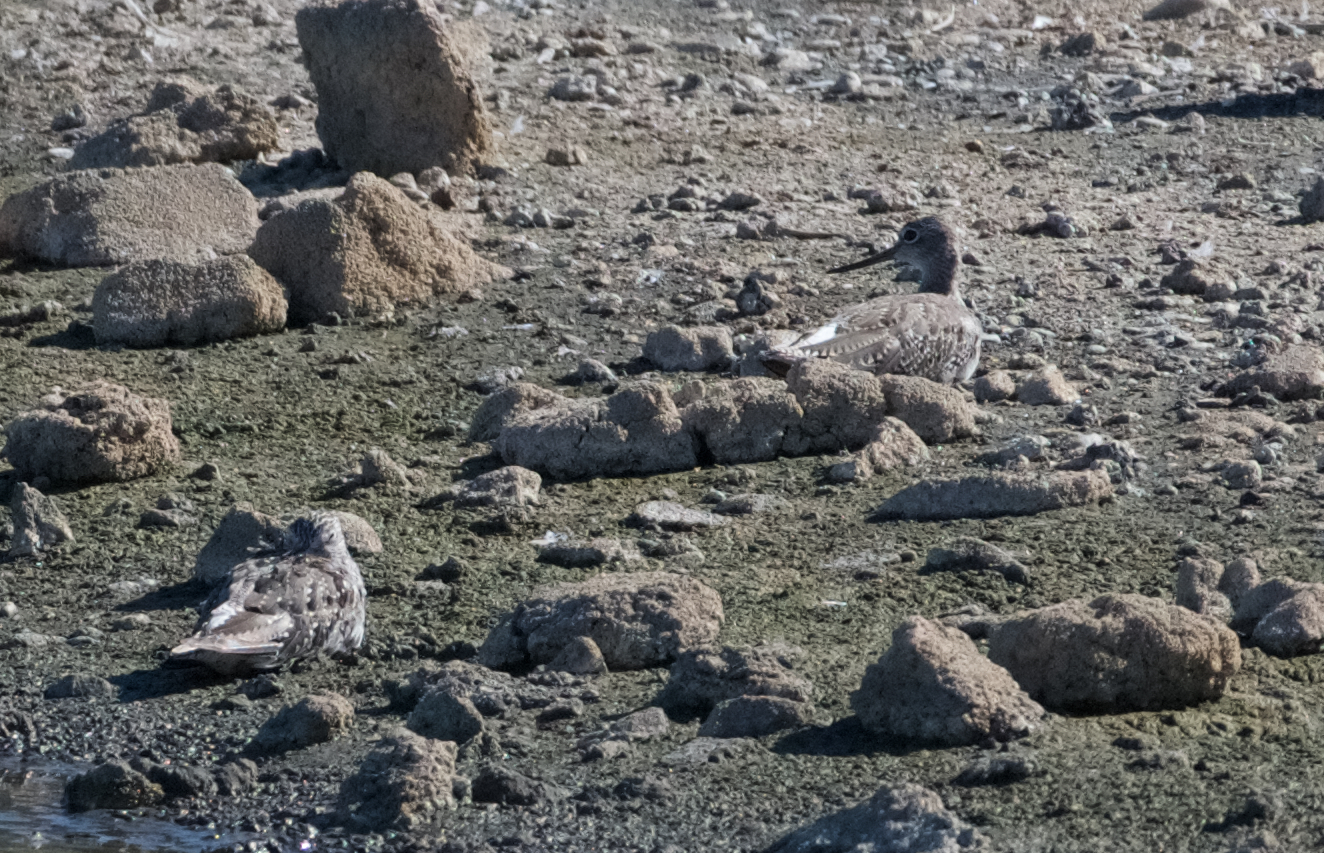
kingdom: Animalia
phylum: Chordata
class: Aves
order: Charadriiformes
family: Scolopacidae
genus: Tringa
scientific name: Tringa melanoleuca
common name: Greater yellowlegs
